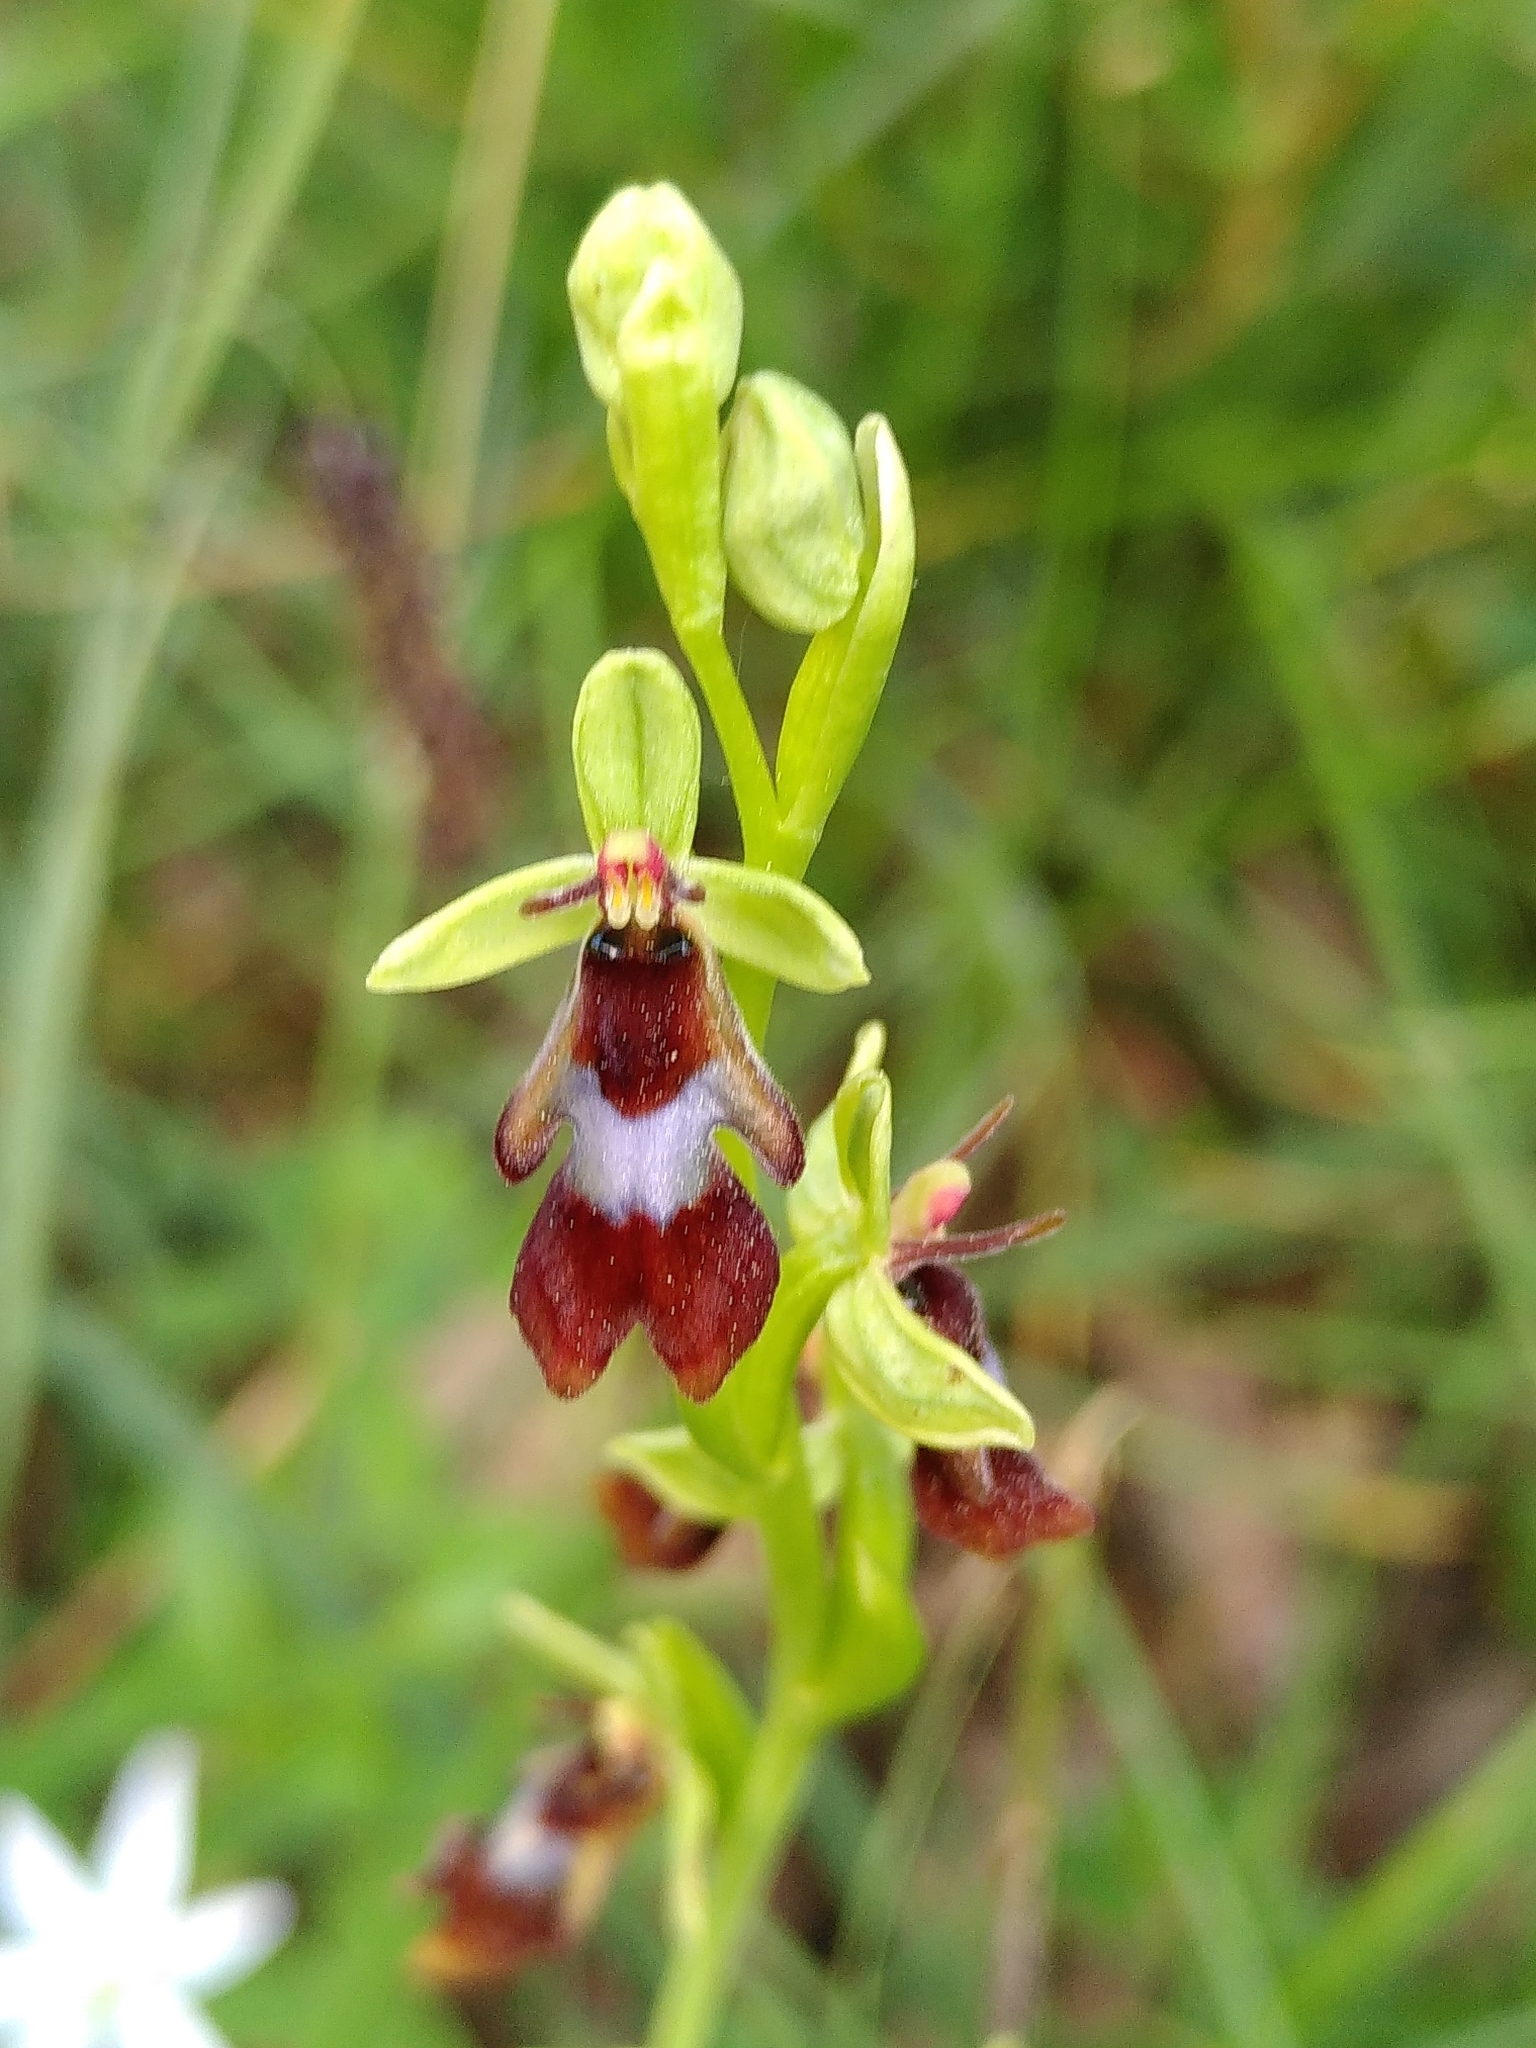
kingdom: Plantae
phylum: Tracheophyta
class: Liliopsida
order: Asparagales
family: Orchidaceae
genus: Ophrys
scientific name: Ophrys insectifera
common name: Fly orchid
